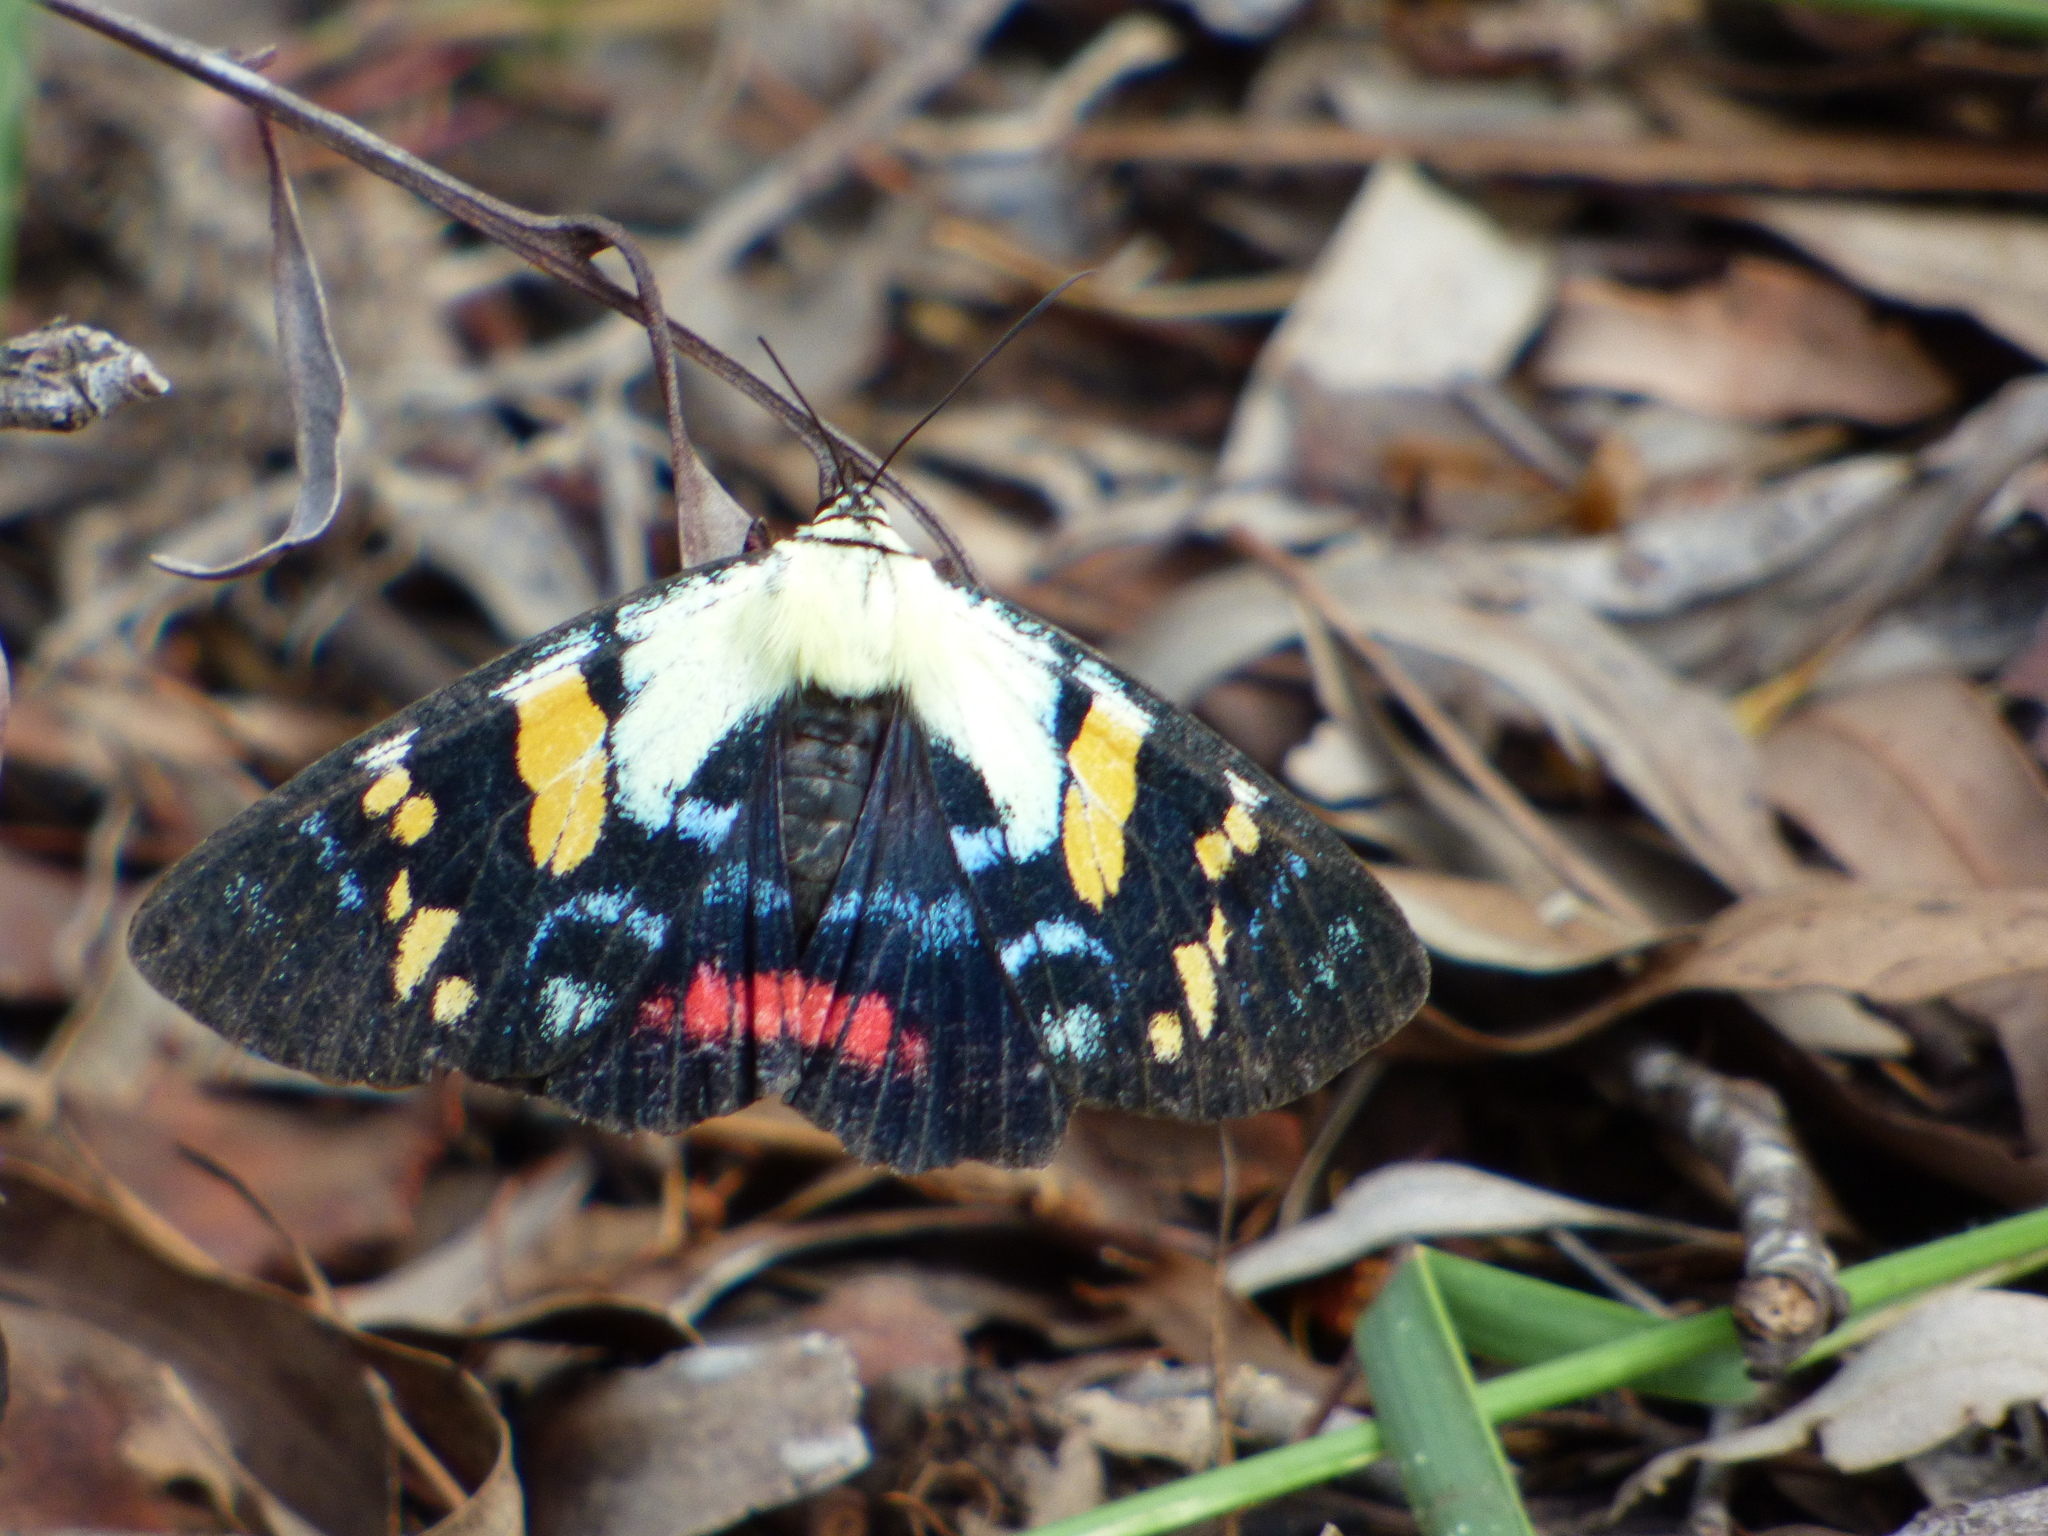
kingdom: Animalia
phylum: Arthropoda
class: Insecta
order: Lepidoptera
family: Noctuidae
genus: Agarista
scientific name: Agarista agricola
